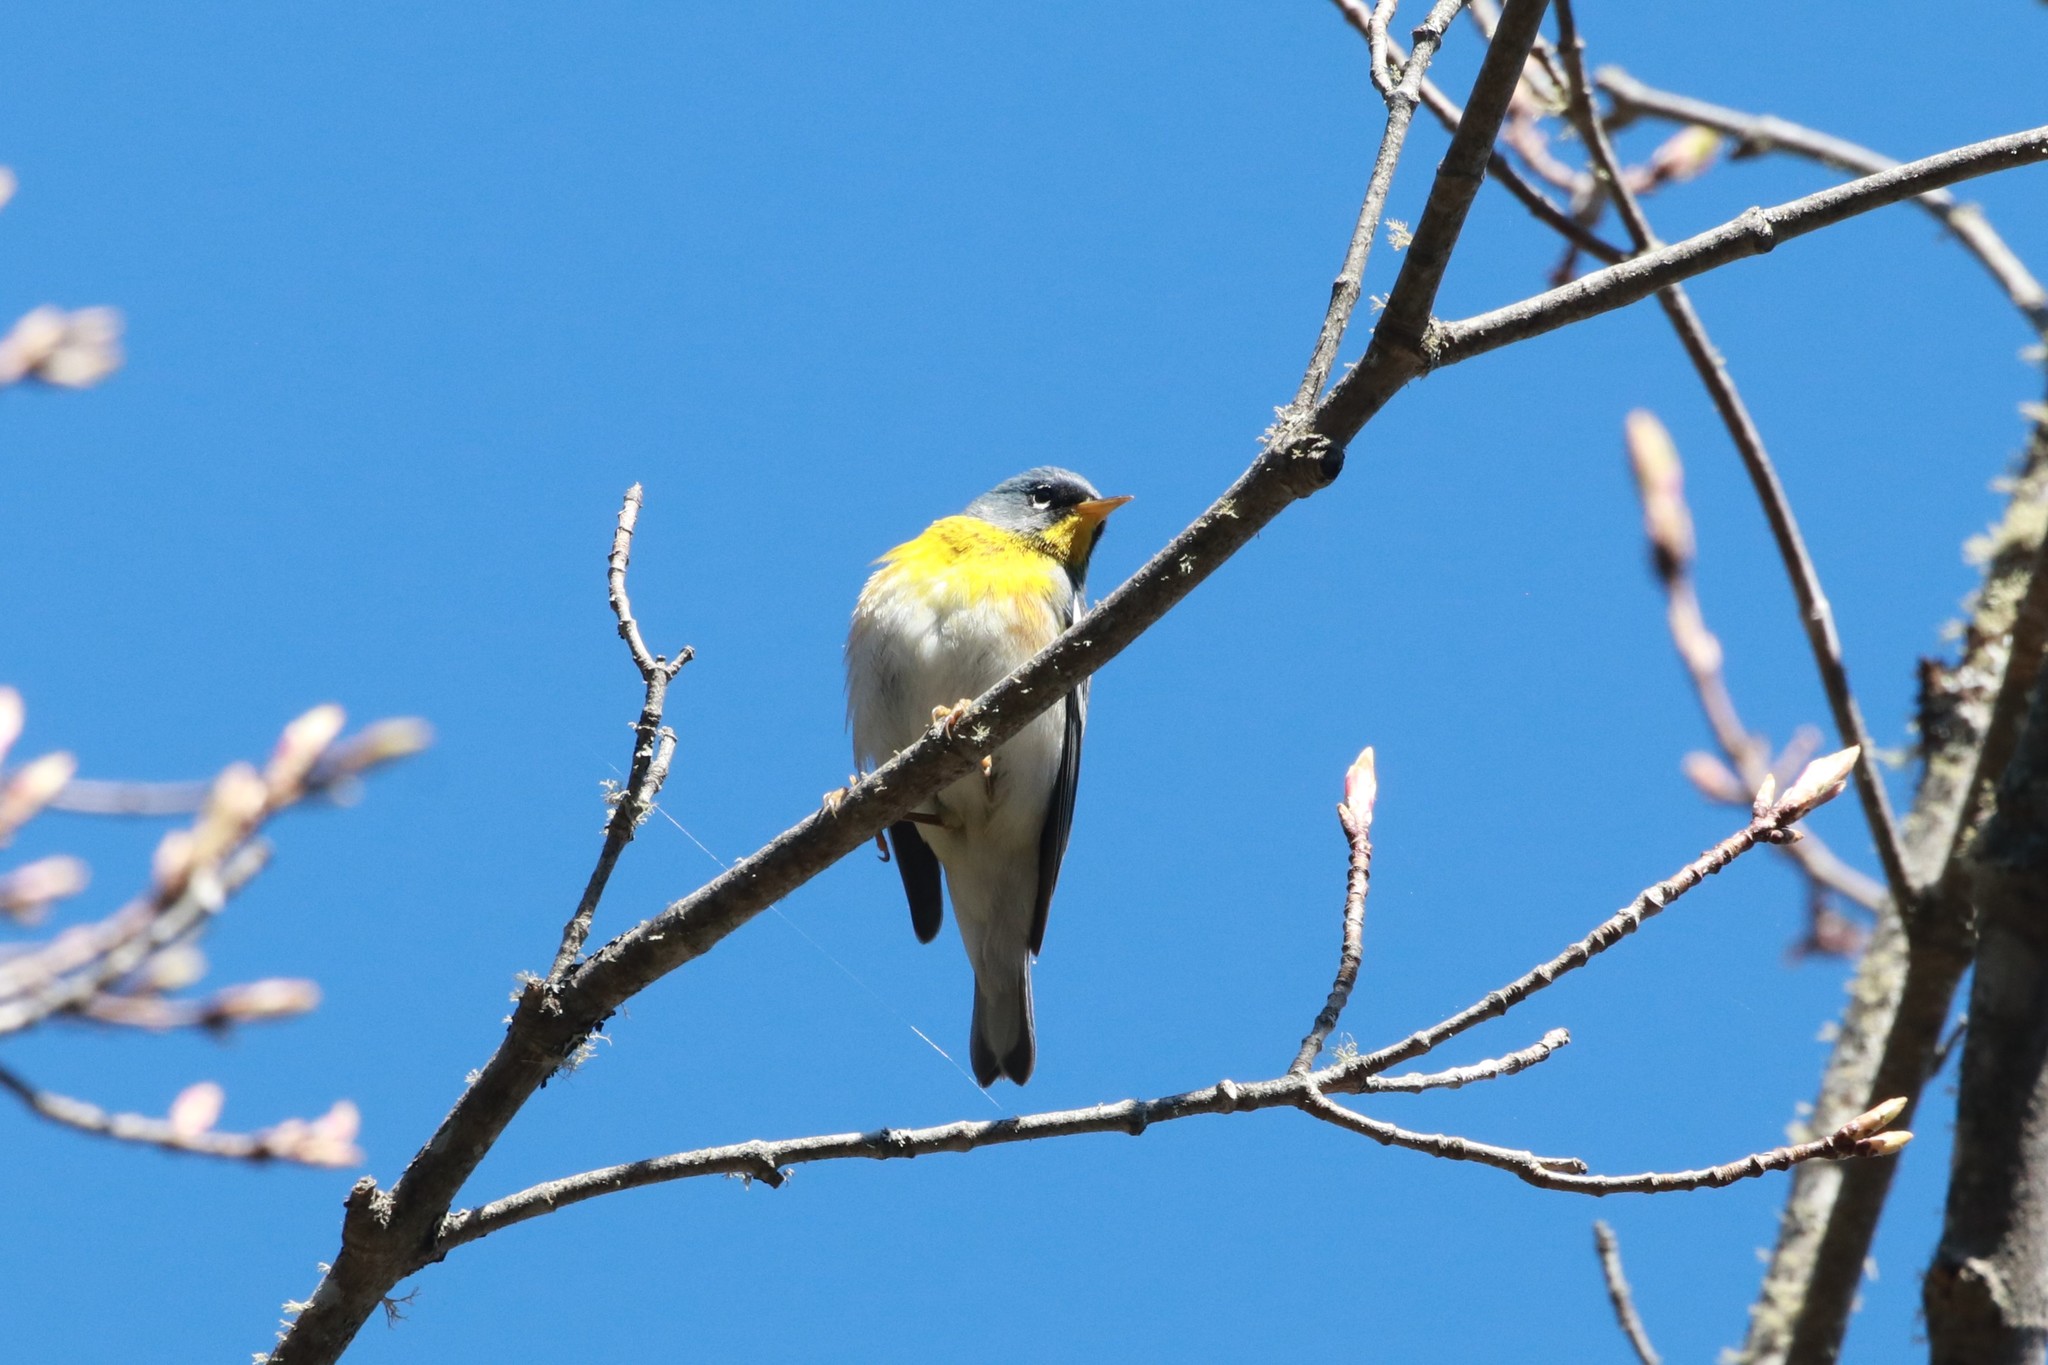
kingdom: Animalia
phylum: Chordata
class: Aves
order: Passeriformes
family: Parulidae
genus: Setophaga
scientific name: Setophaga americana
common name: Northern parula
